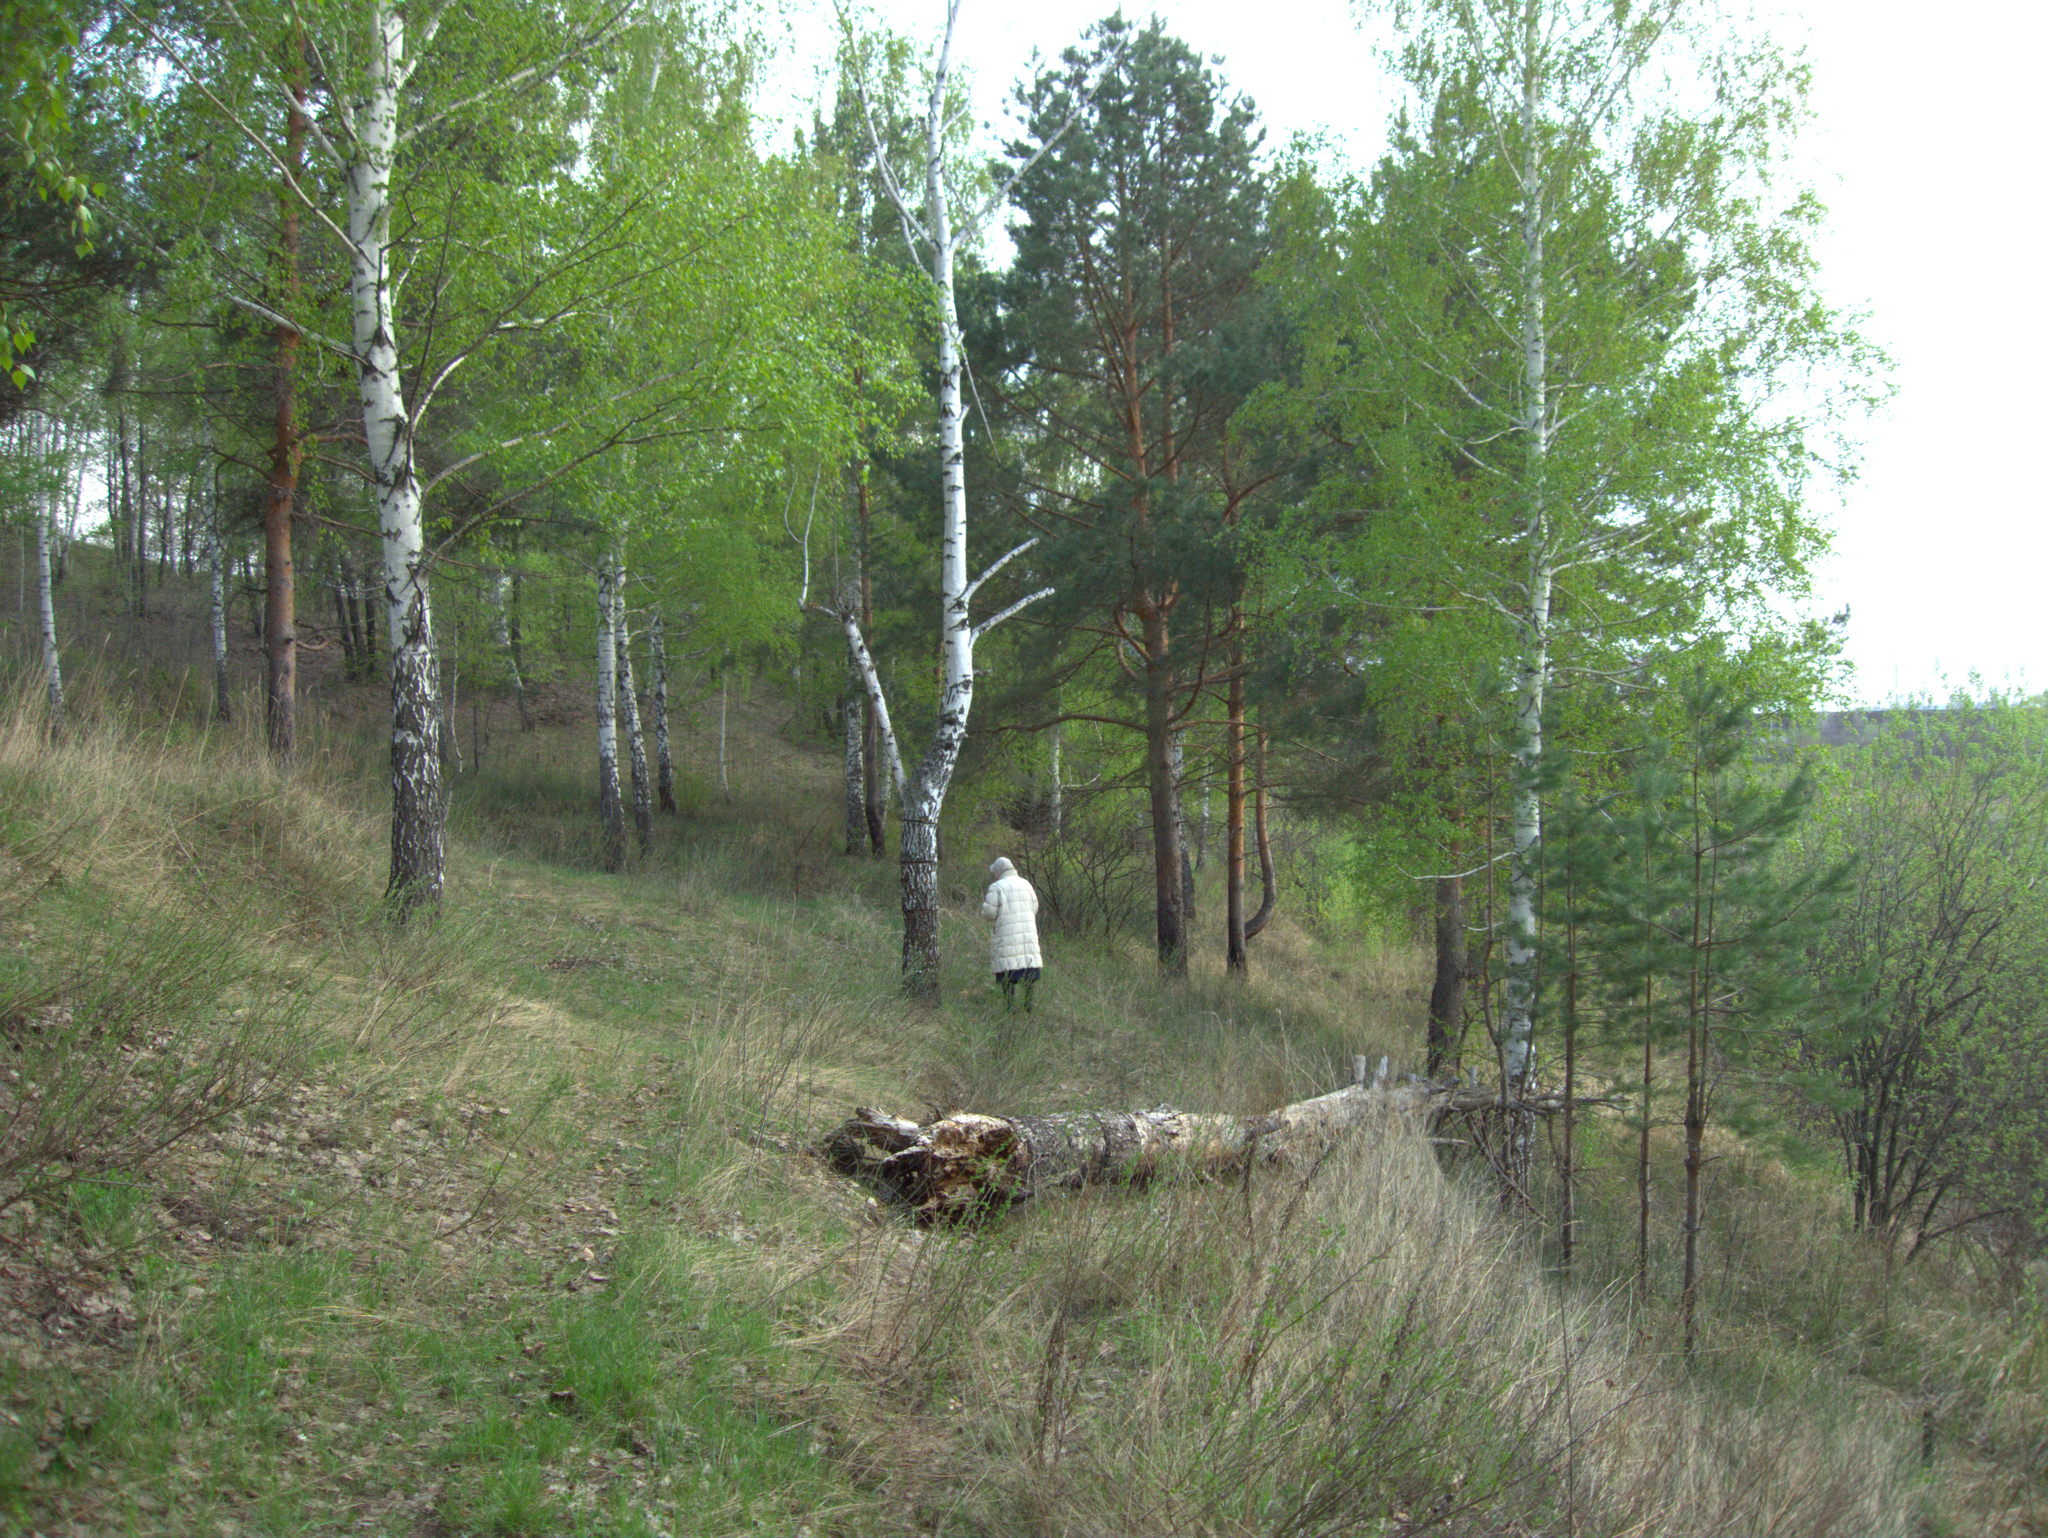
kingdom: Plantae
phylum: Tracheophyta
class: Magnoliopsida
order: Fagales
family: Betulaceae
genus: Betula
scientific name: Betula pendula
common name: Silver birch
